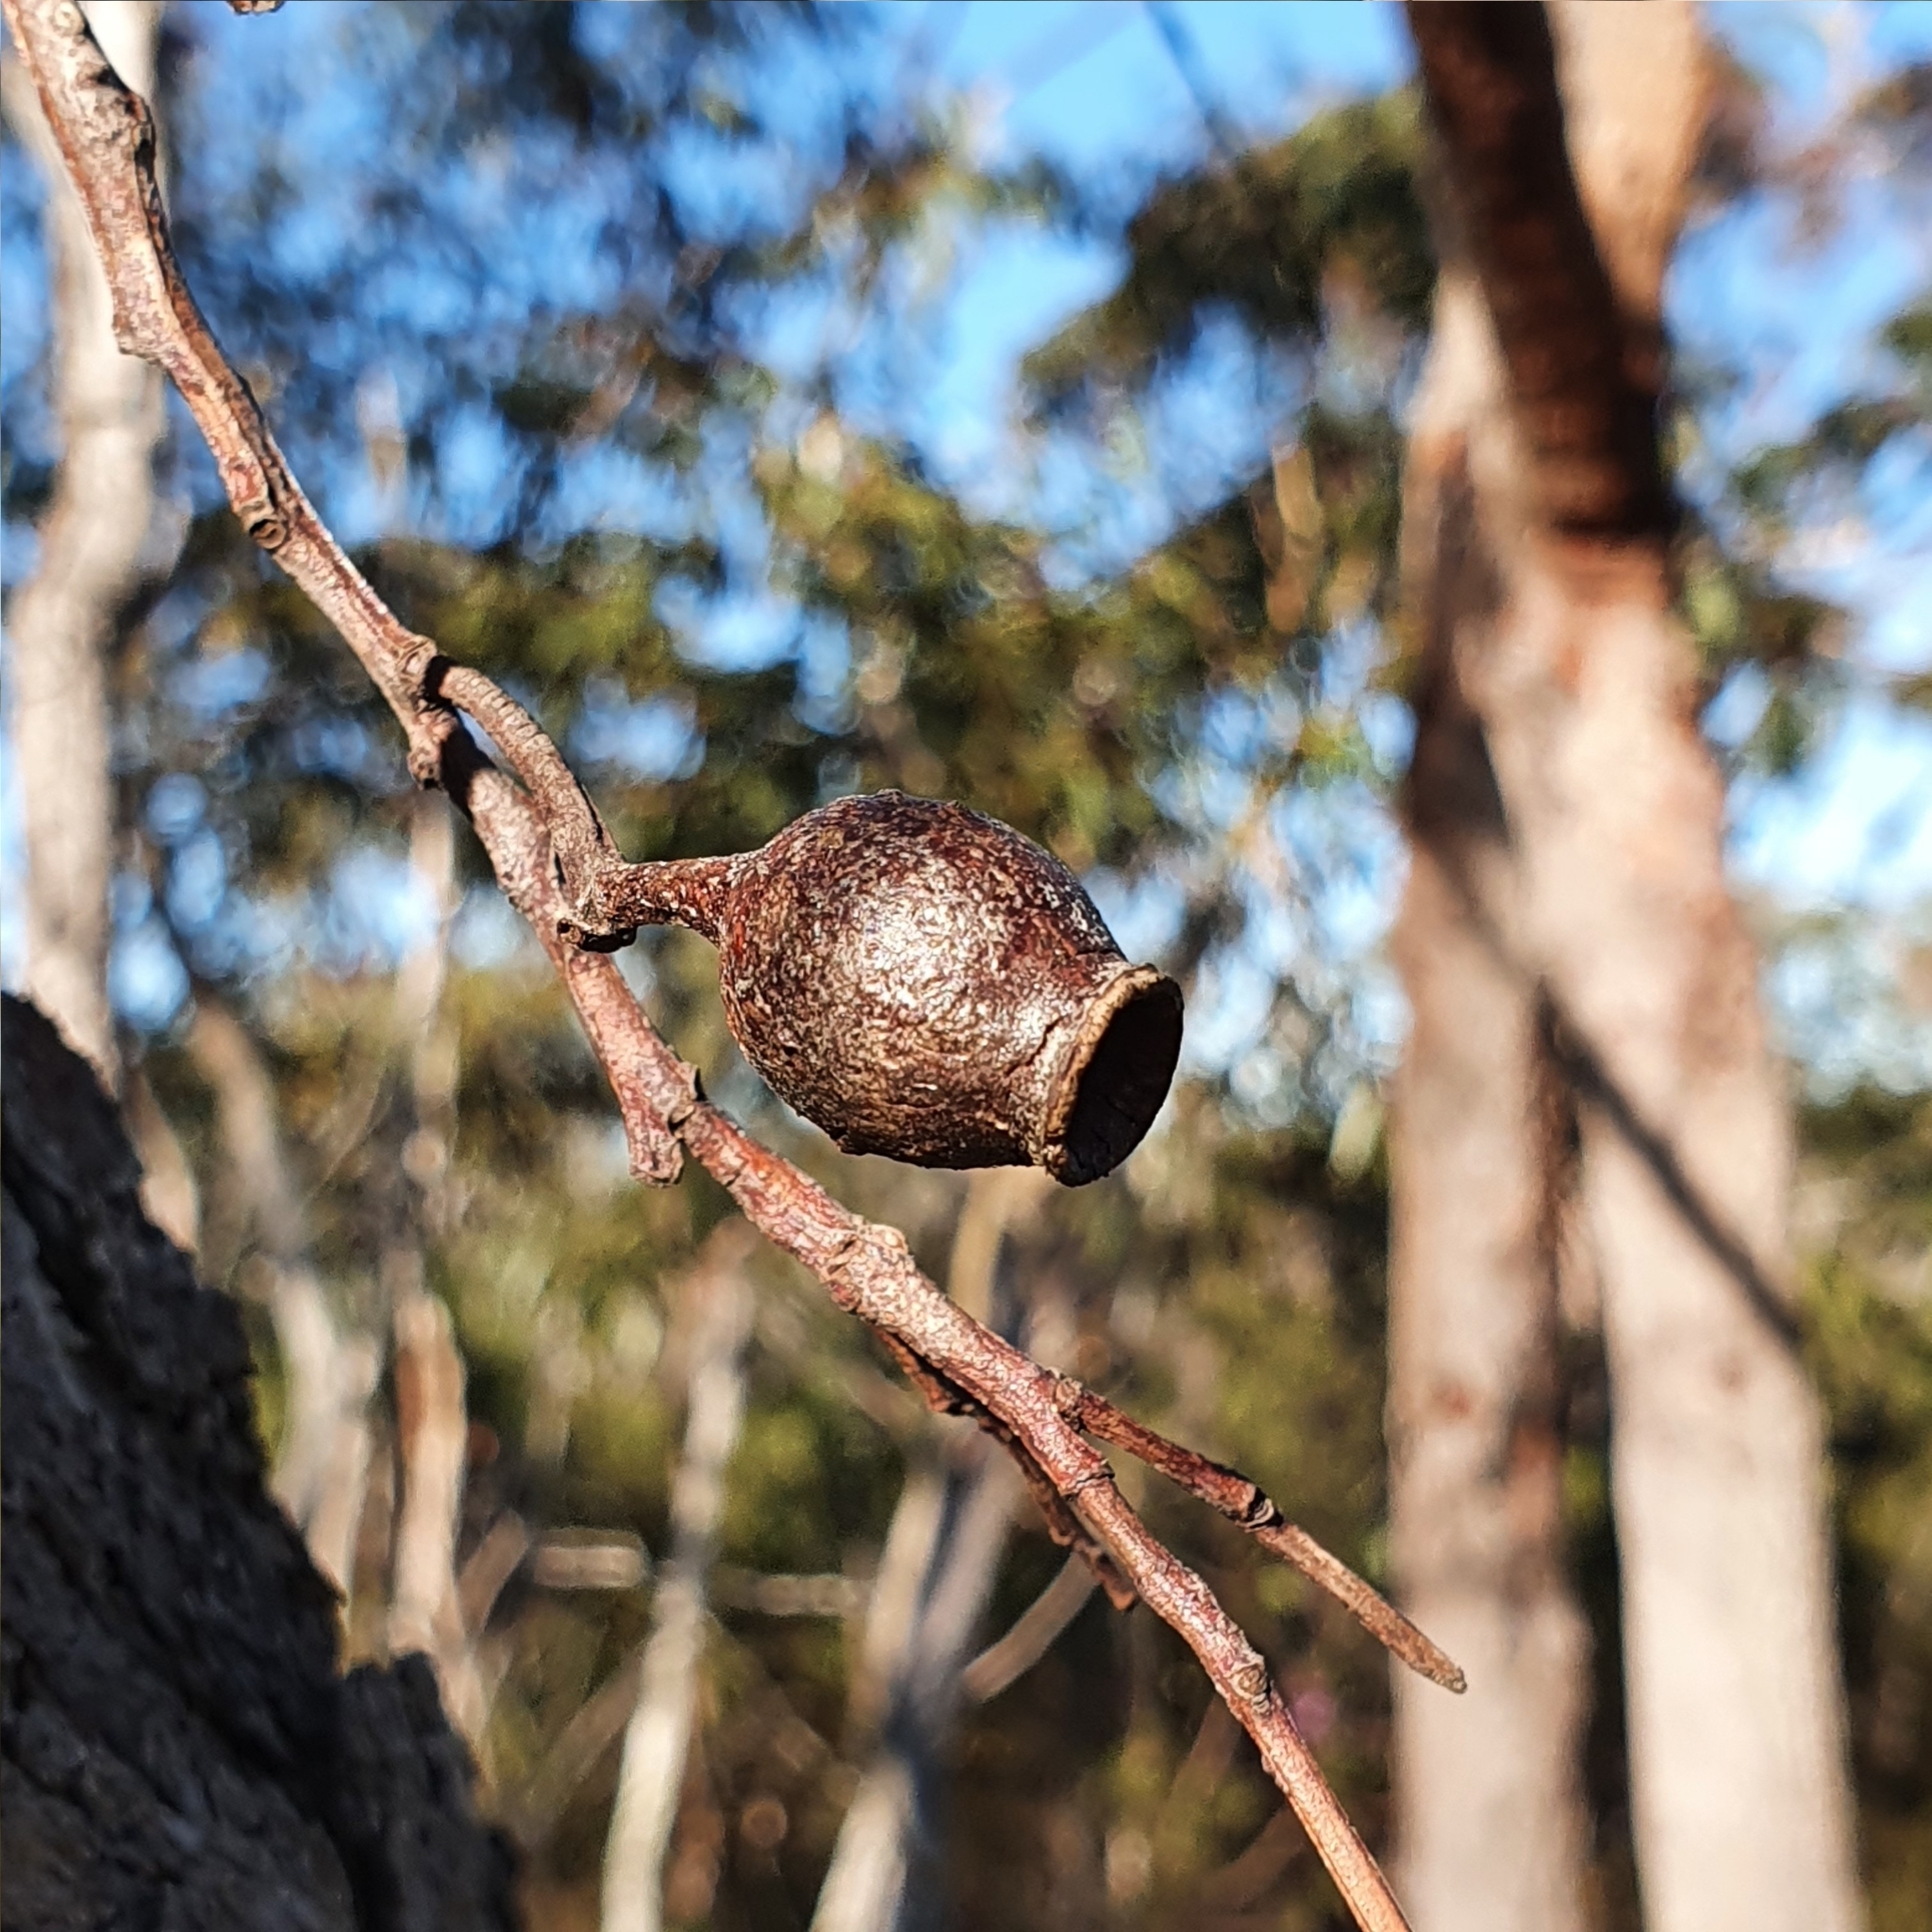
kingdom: Plantae
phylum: Tracheophyta
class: Magnoliopsida
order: Myrtales
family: Myrtaceae
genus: Corymbia
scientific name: Corymbia gummifera
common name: Red bloodwood
